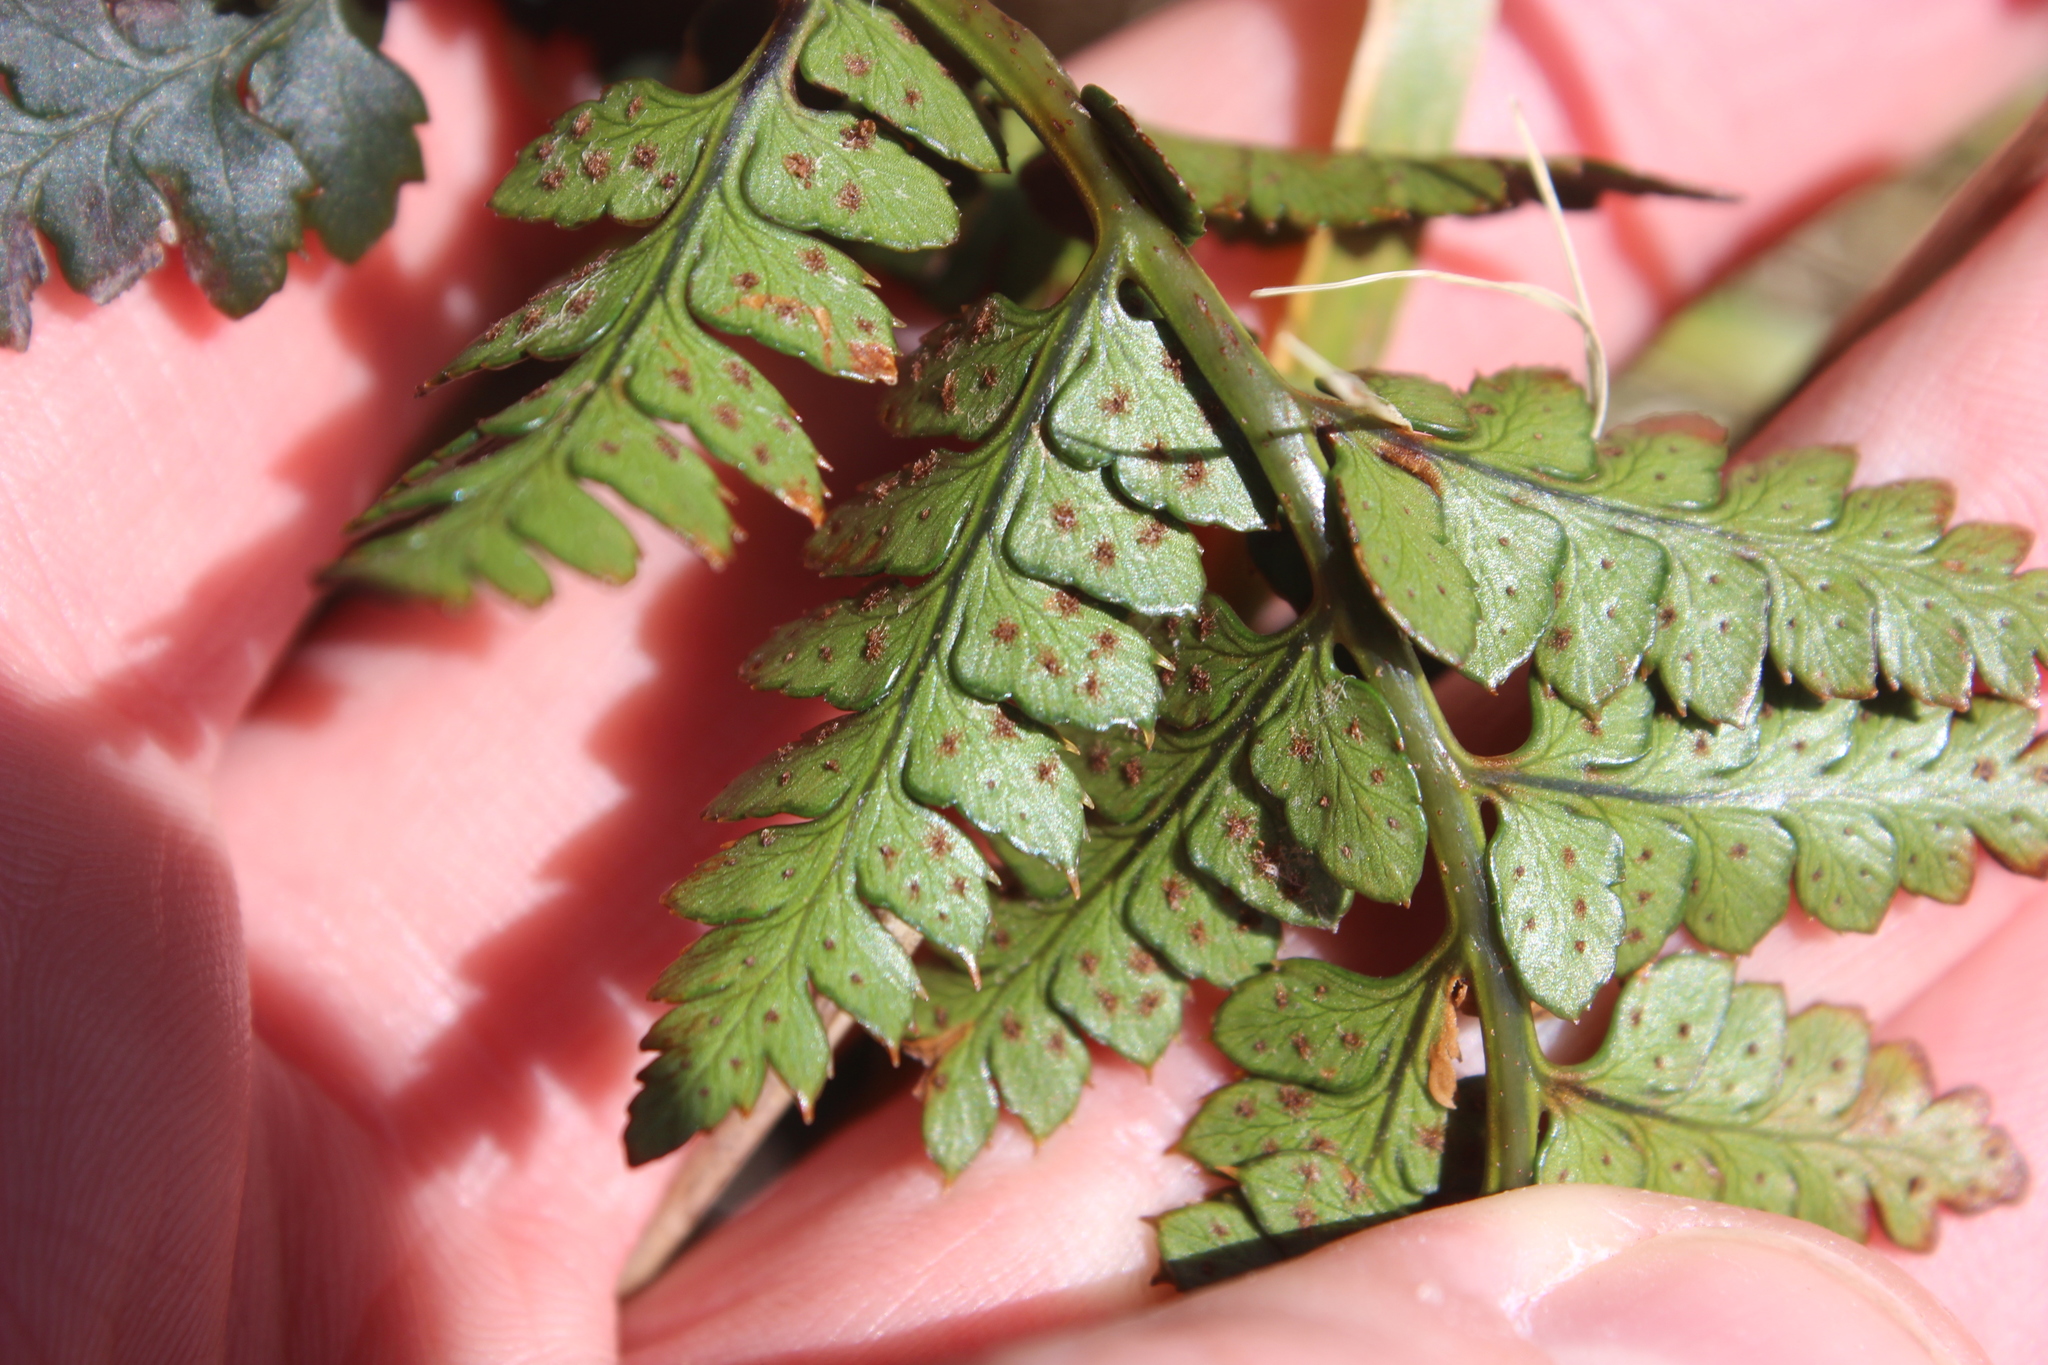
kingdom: Plantae
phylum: Tracheophyta
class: Polypodiopsida
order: Polypodiales
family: Dryopteridaceae
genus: Polystichum
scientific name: Polystichum oculatum
